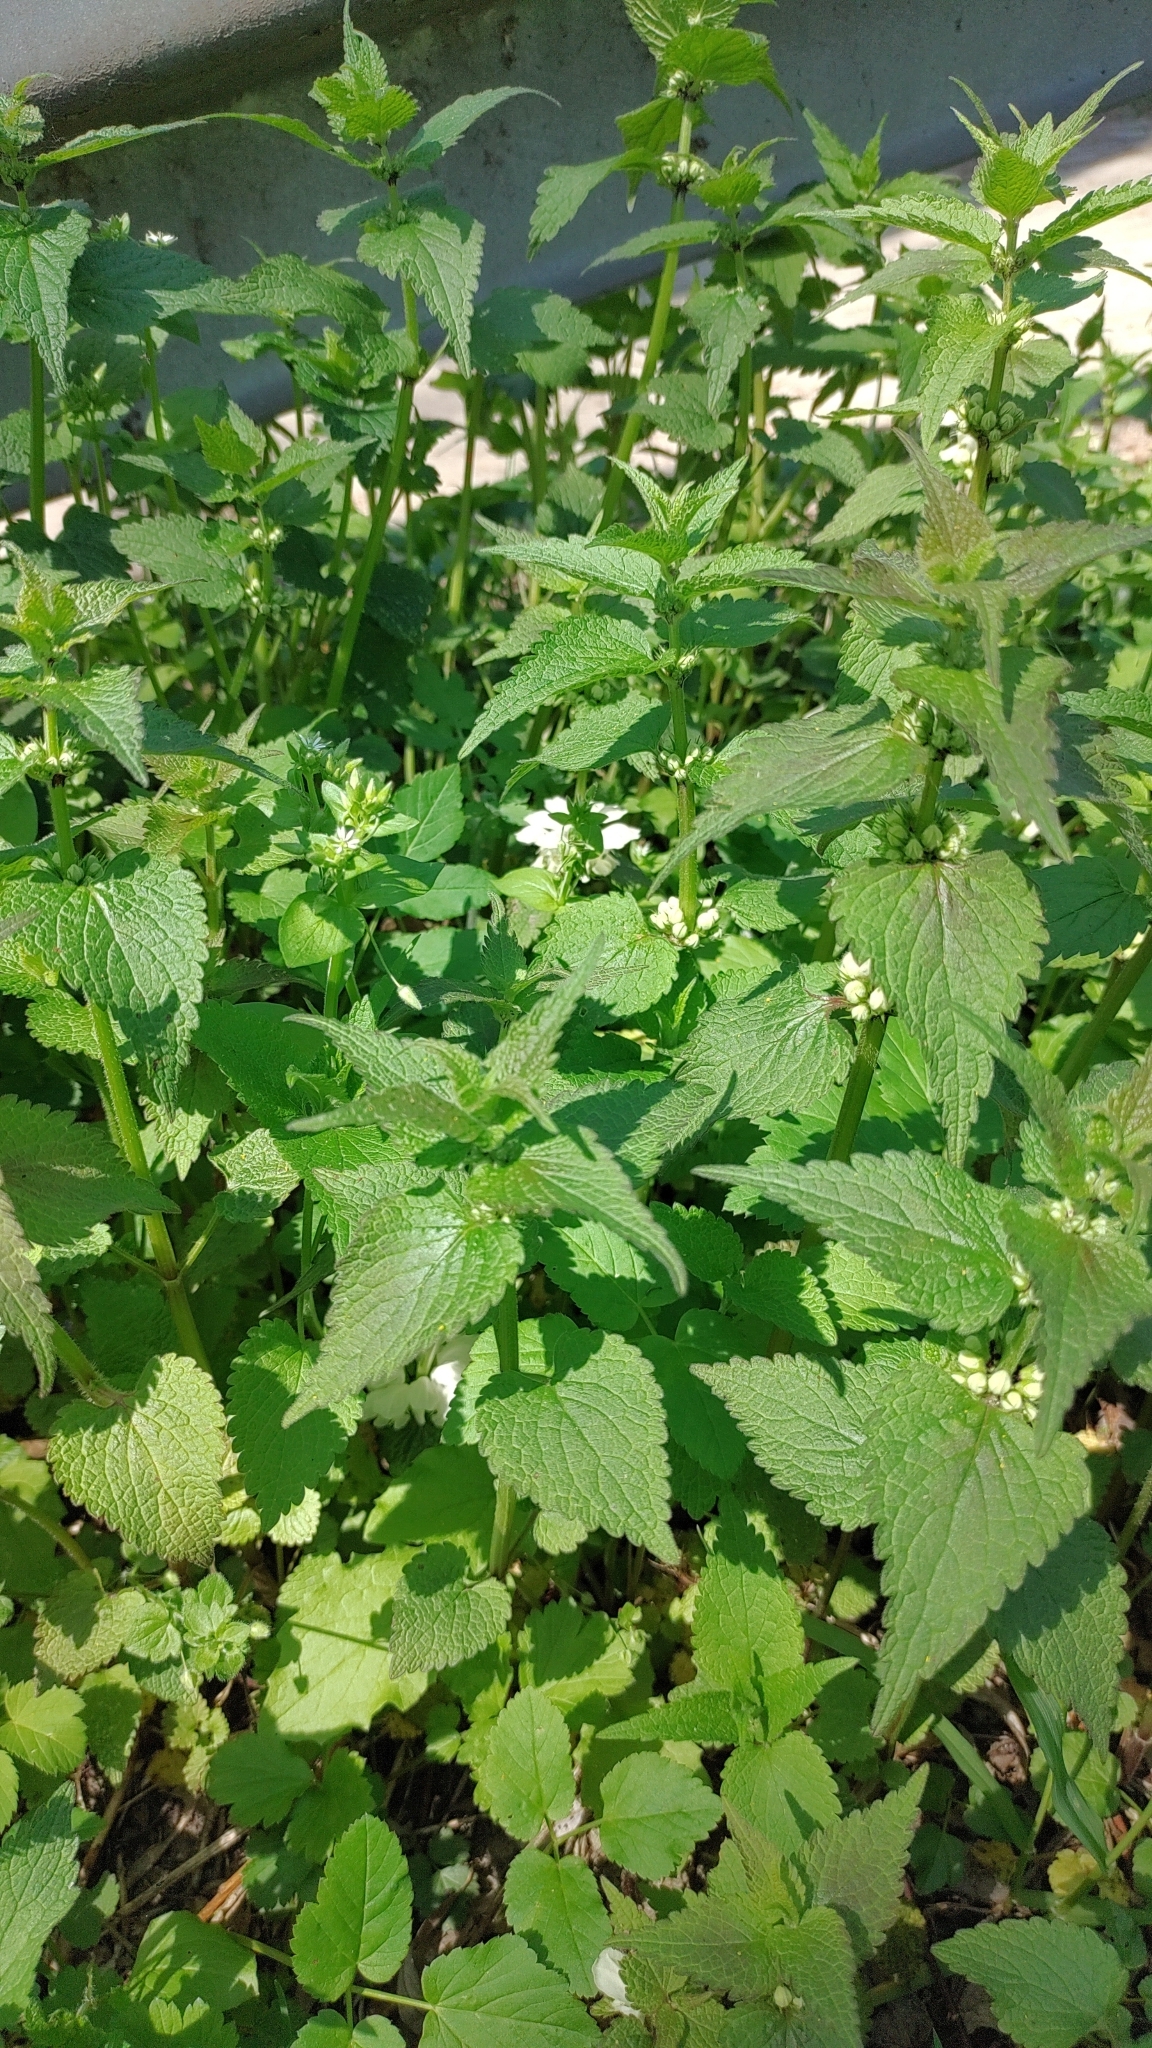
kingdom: Plantae
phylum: Tracheophyta
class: Magnoliopsida
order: Lamiales
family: Lamiaceae
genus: Lamium
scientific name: Lamium album
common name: White dead-nettle
